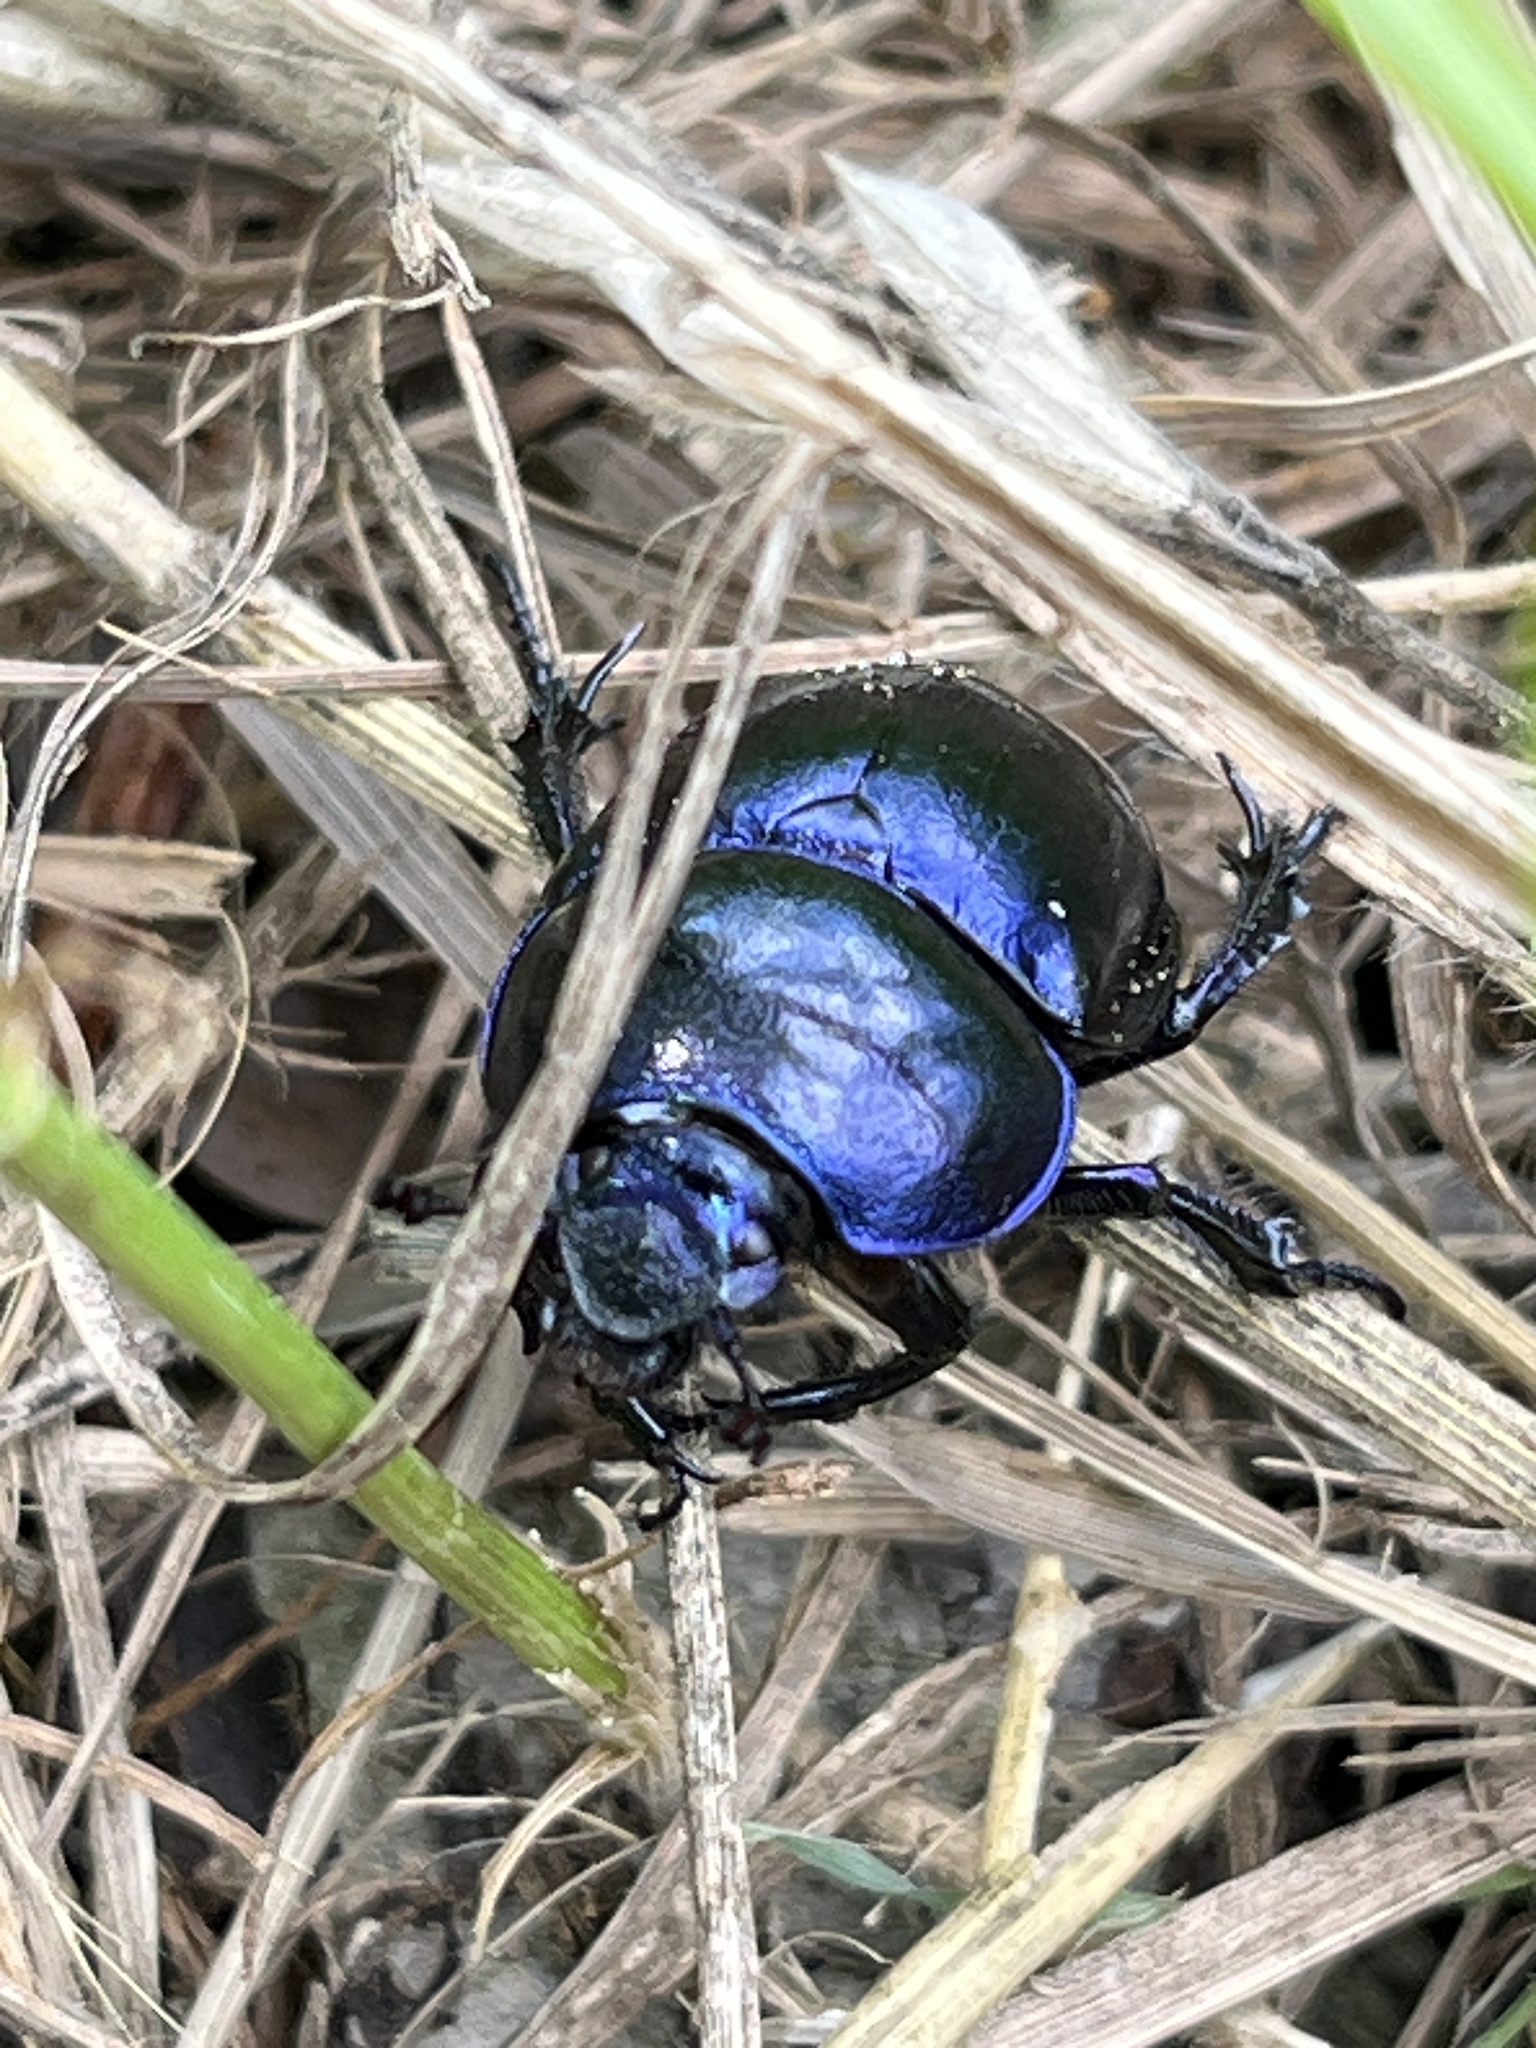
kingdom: Animalia
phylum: Arthropoda
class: Insecta
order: Coleoptera
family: Geotrupidae
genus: Trypocopris
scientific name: Trypocopris vernalis
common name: Spring dumbledor
